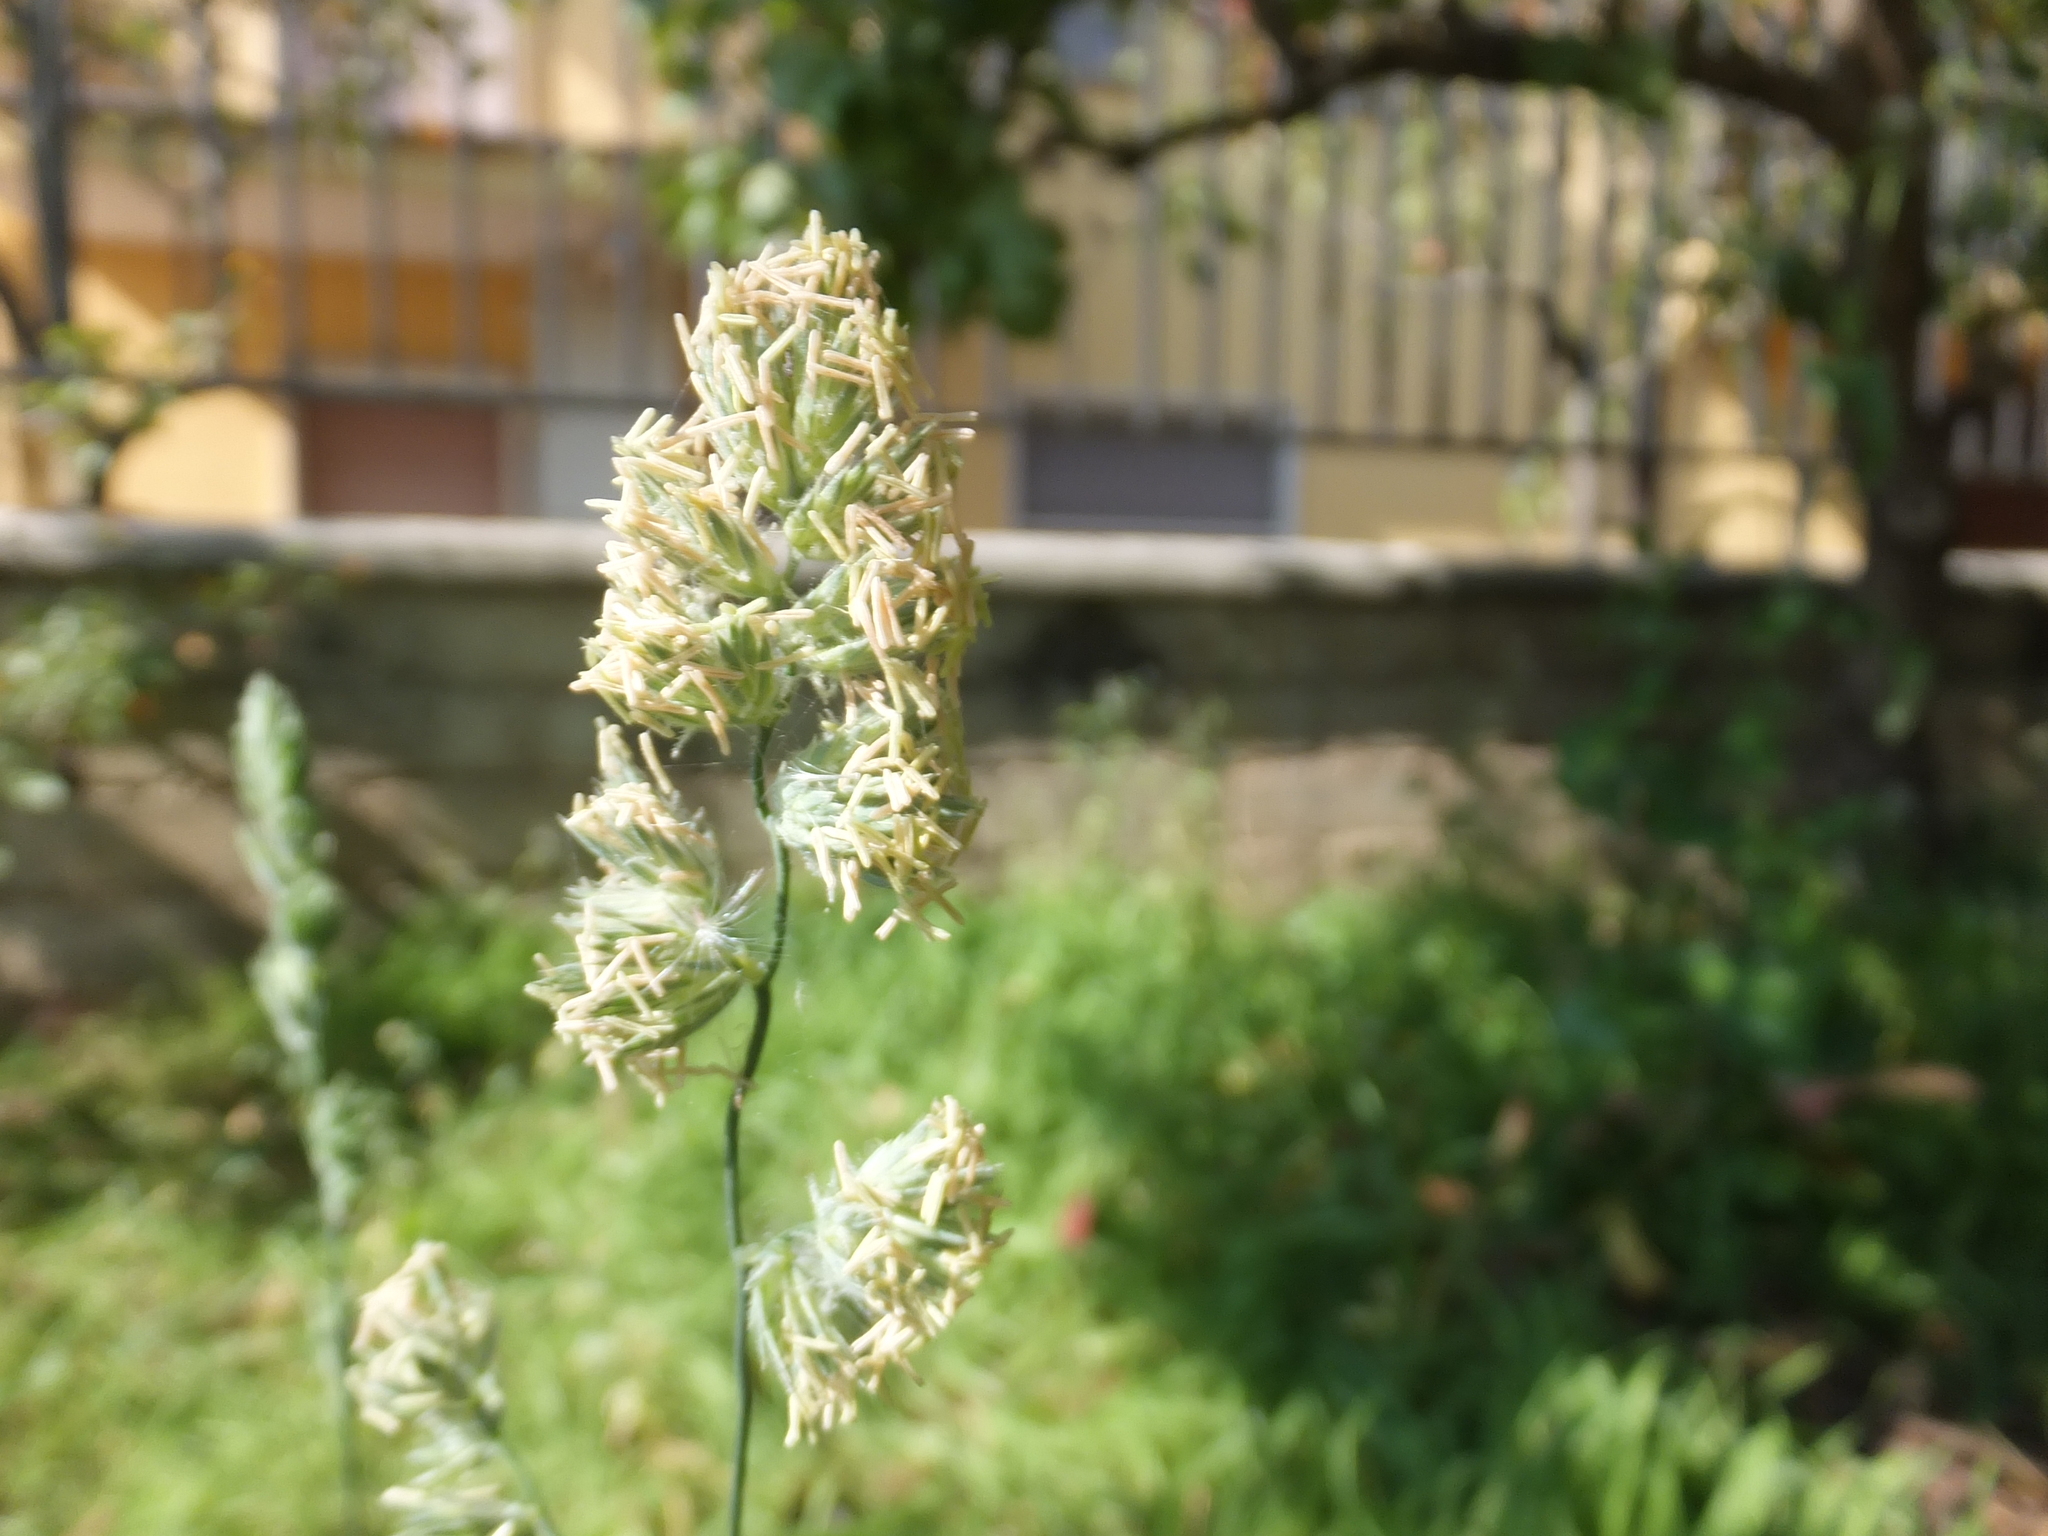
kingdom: Plantae
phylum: Tracheophyta
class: Liliopsida
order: Poales
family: Poaceae
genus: Dactylis
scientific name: Dactylis glomerata
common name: Orchardgrass
